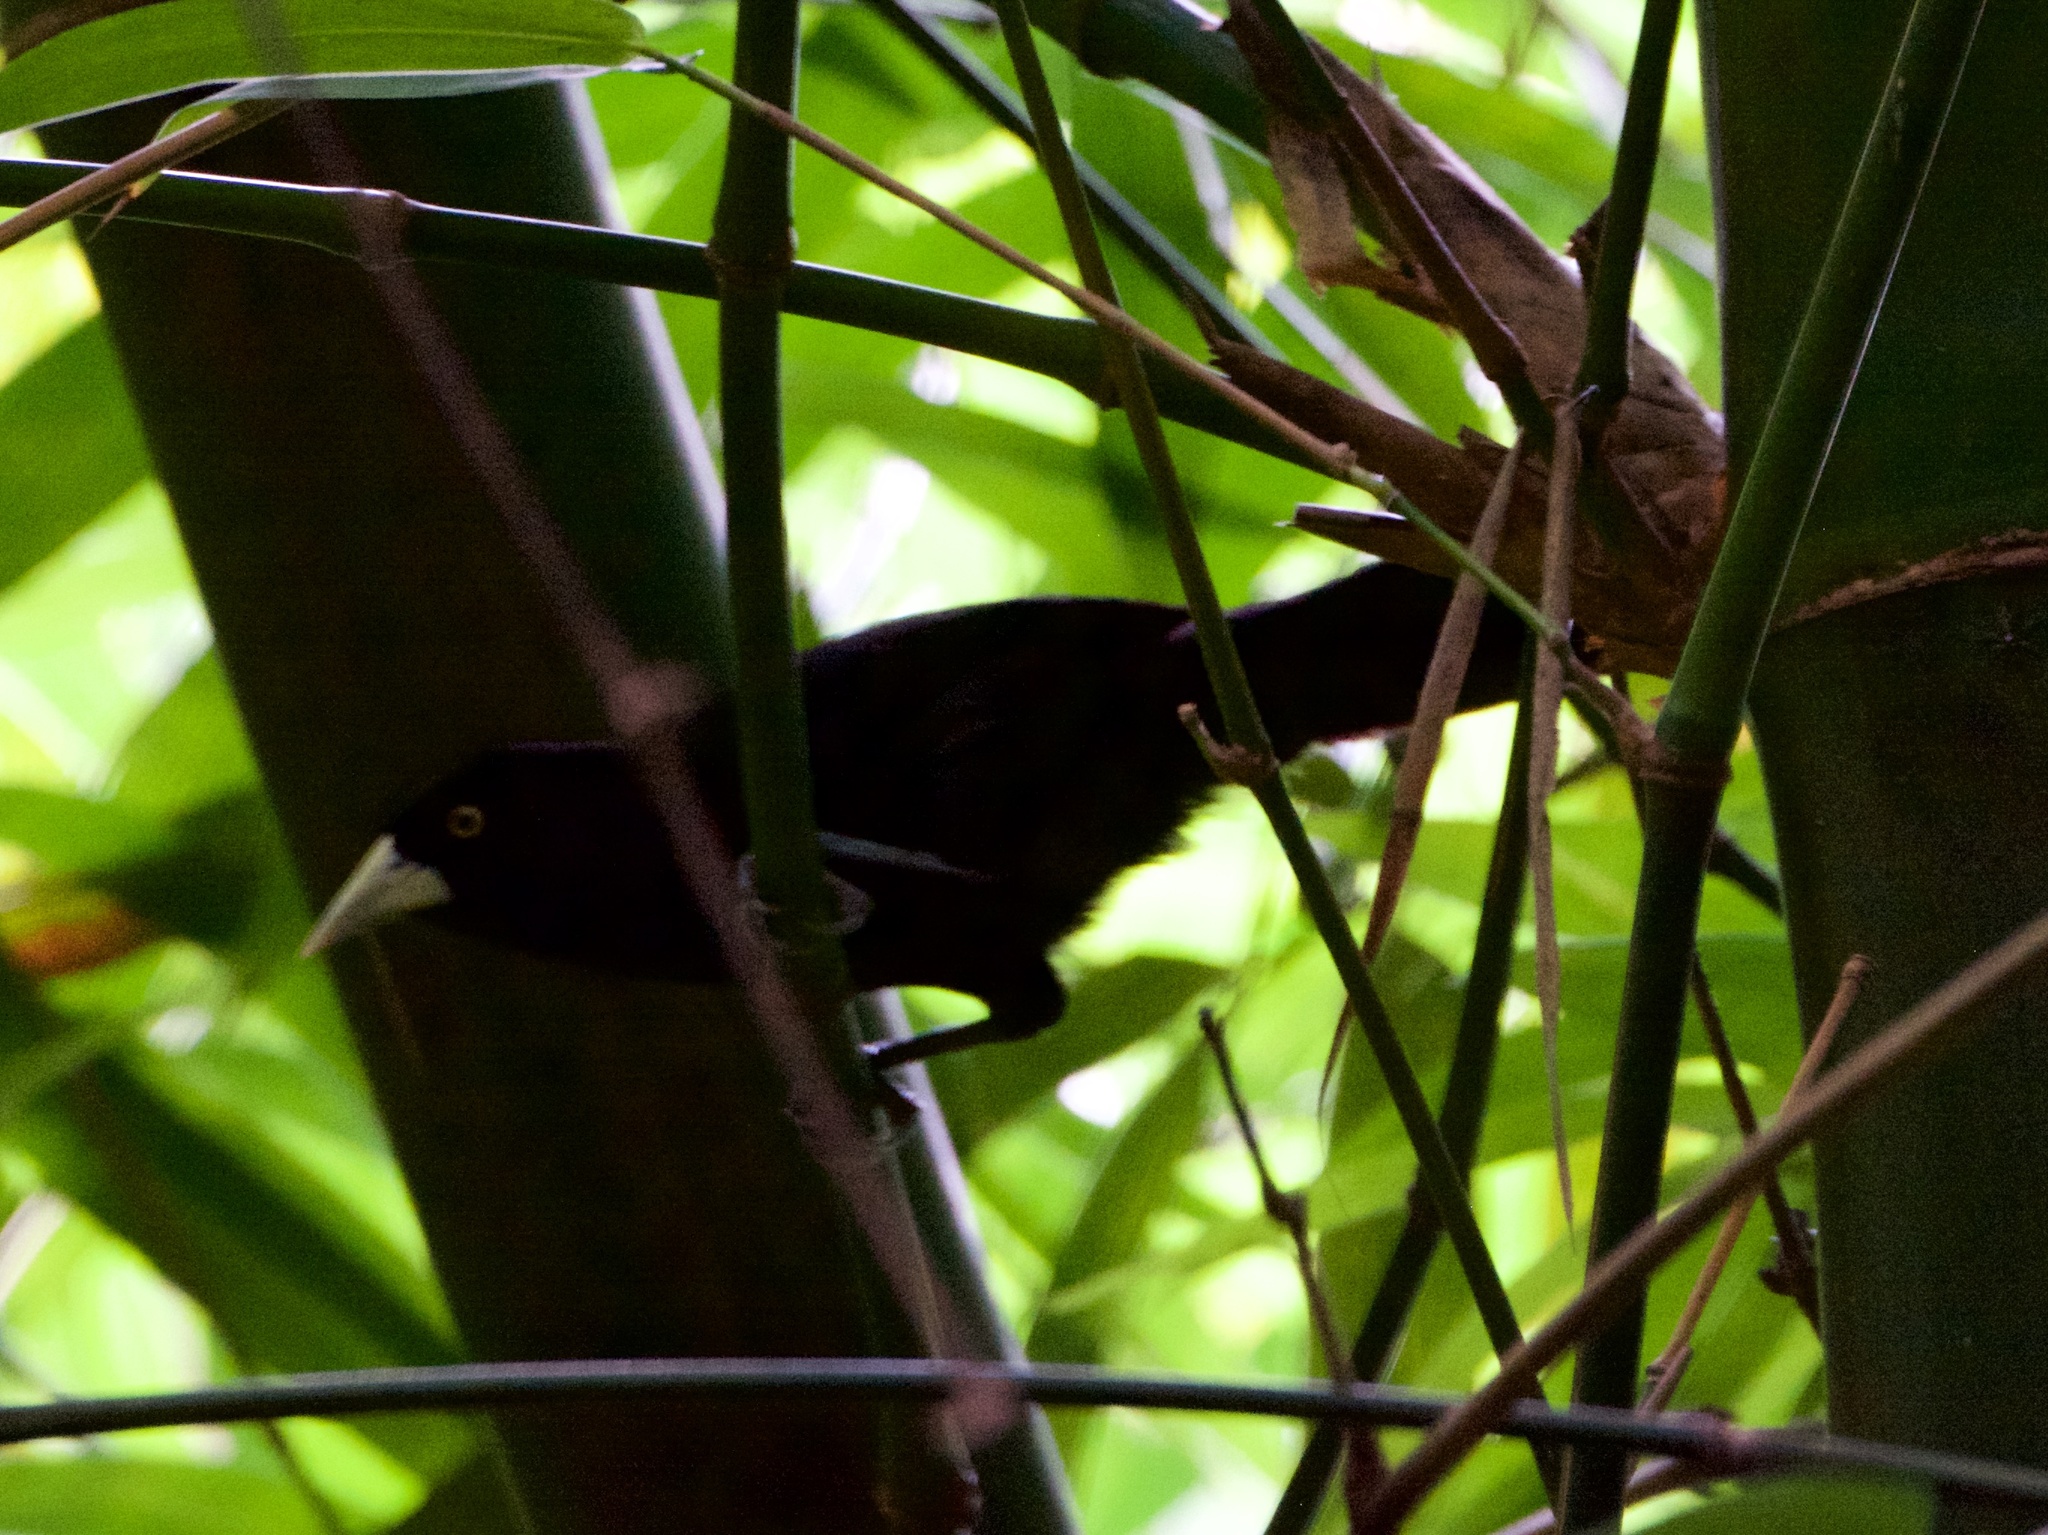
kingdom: Animalia
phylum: Chordata
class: Aves
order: Passeriformes
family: Icteridae
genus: Amblycercus
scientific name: Amblycercus holosericeus
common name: Yellow-billed cacique
